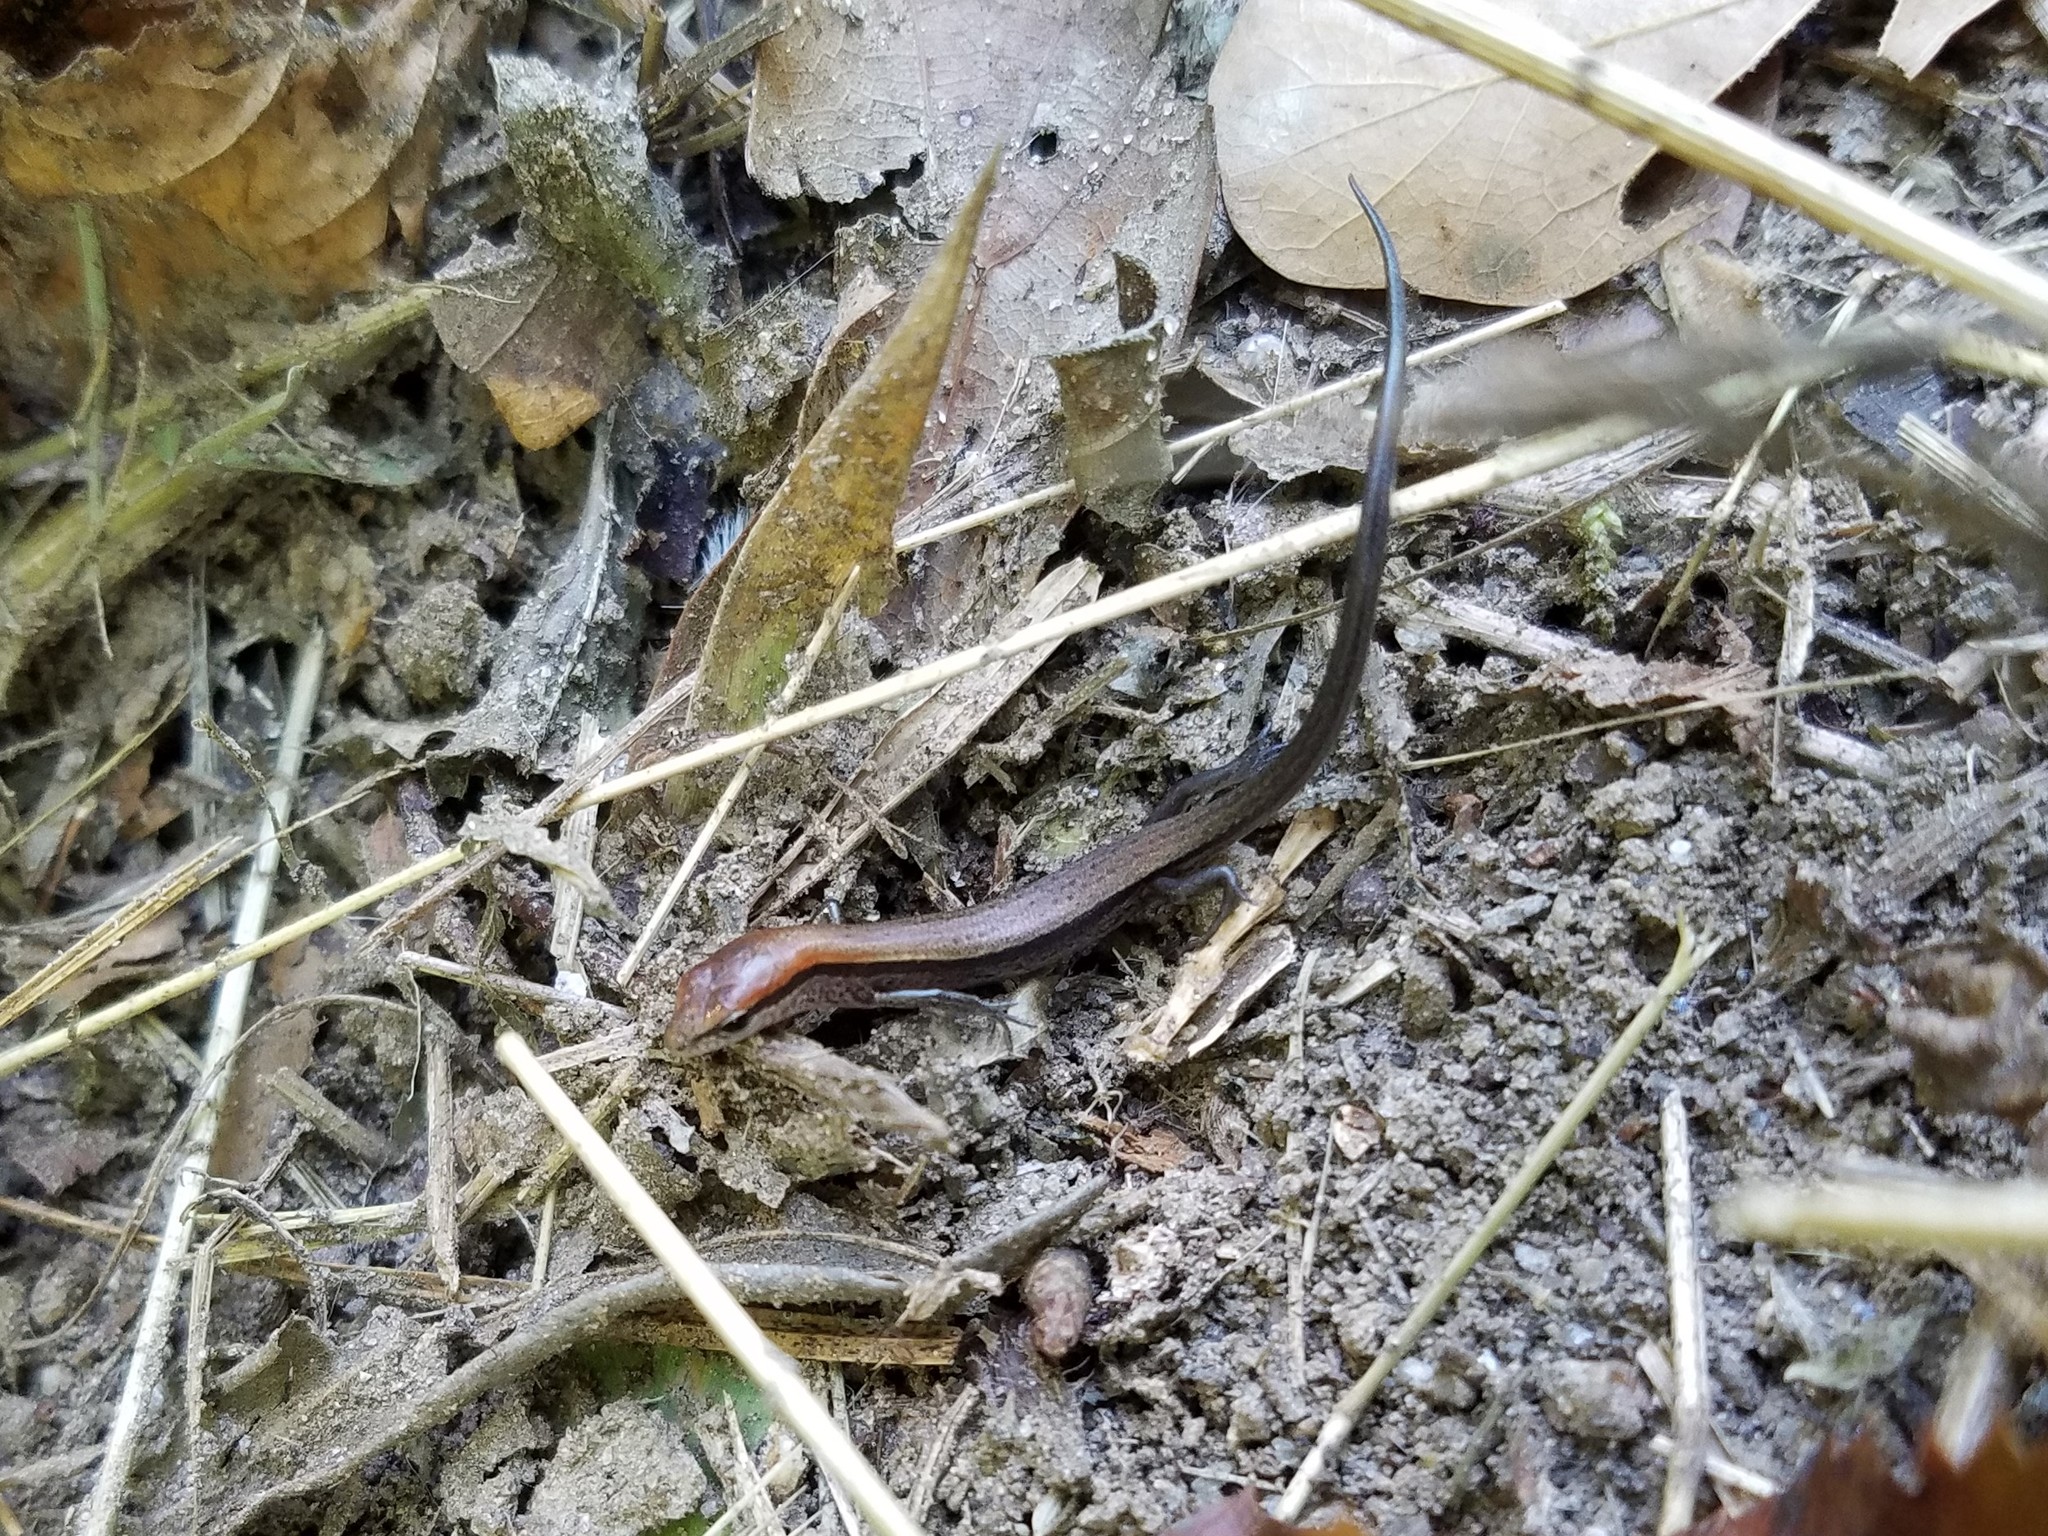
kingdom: Animalia
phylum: Chordata
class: Squamata
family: Scincidae
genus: Scincella
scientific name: Scincella lateralis
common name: Ground skink
